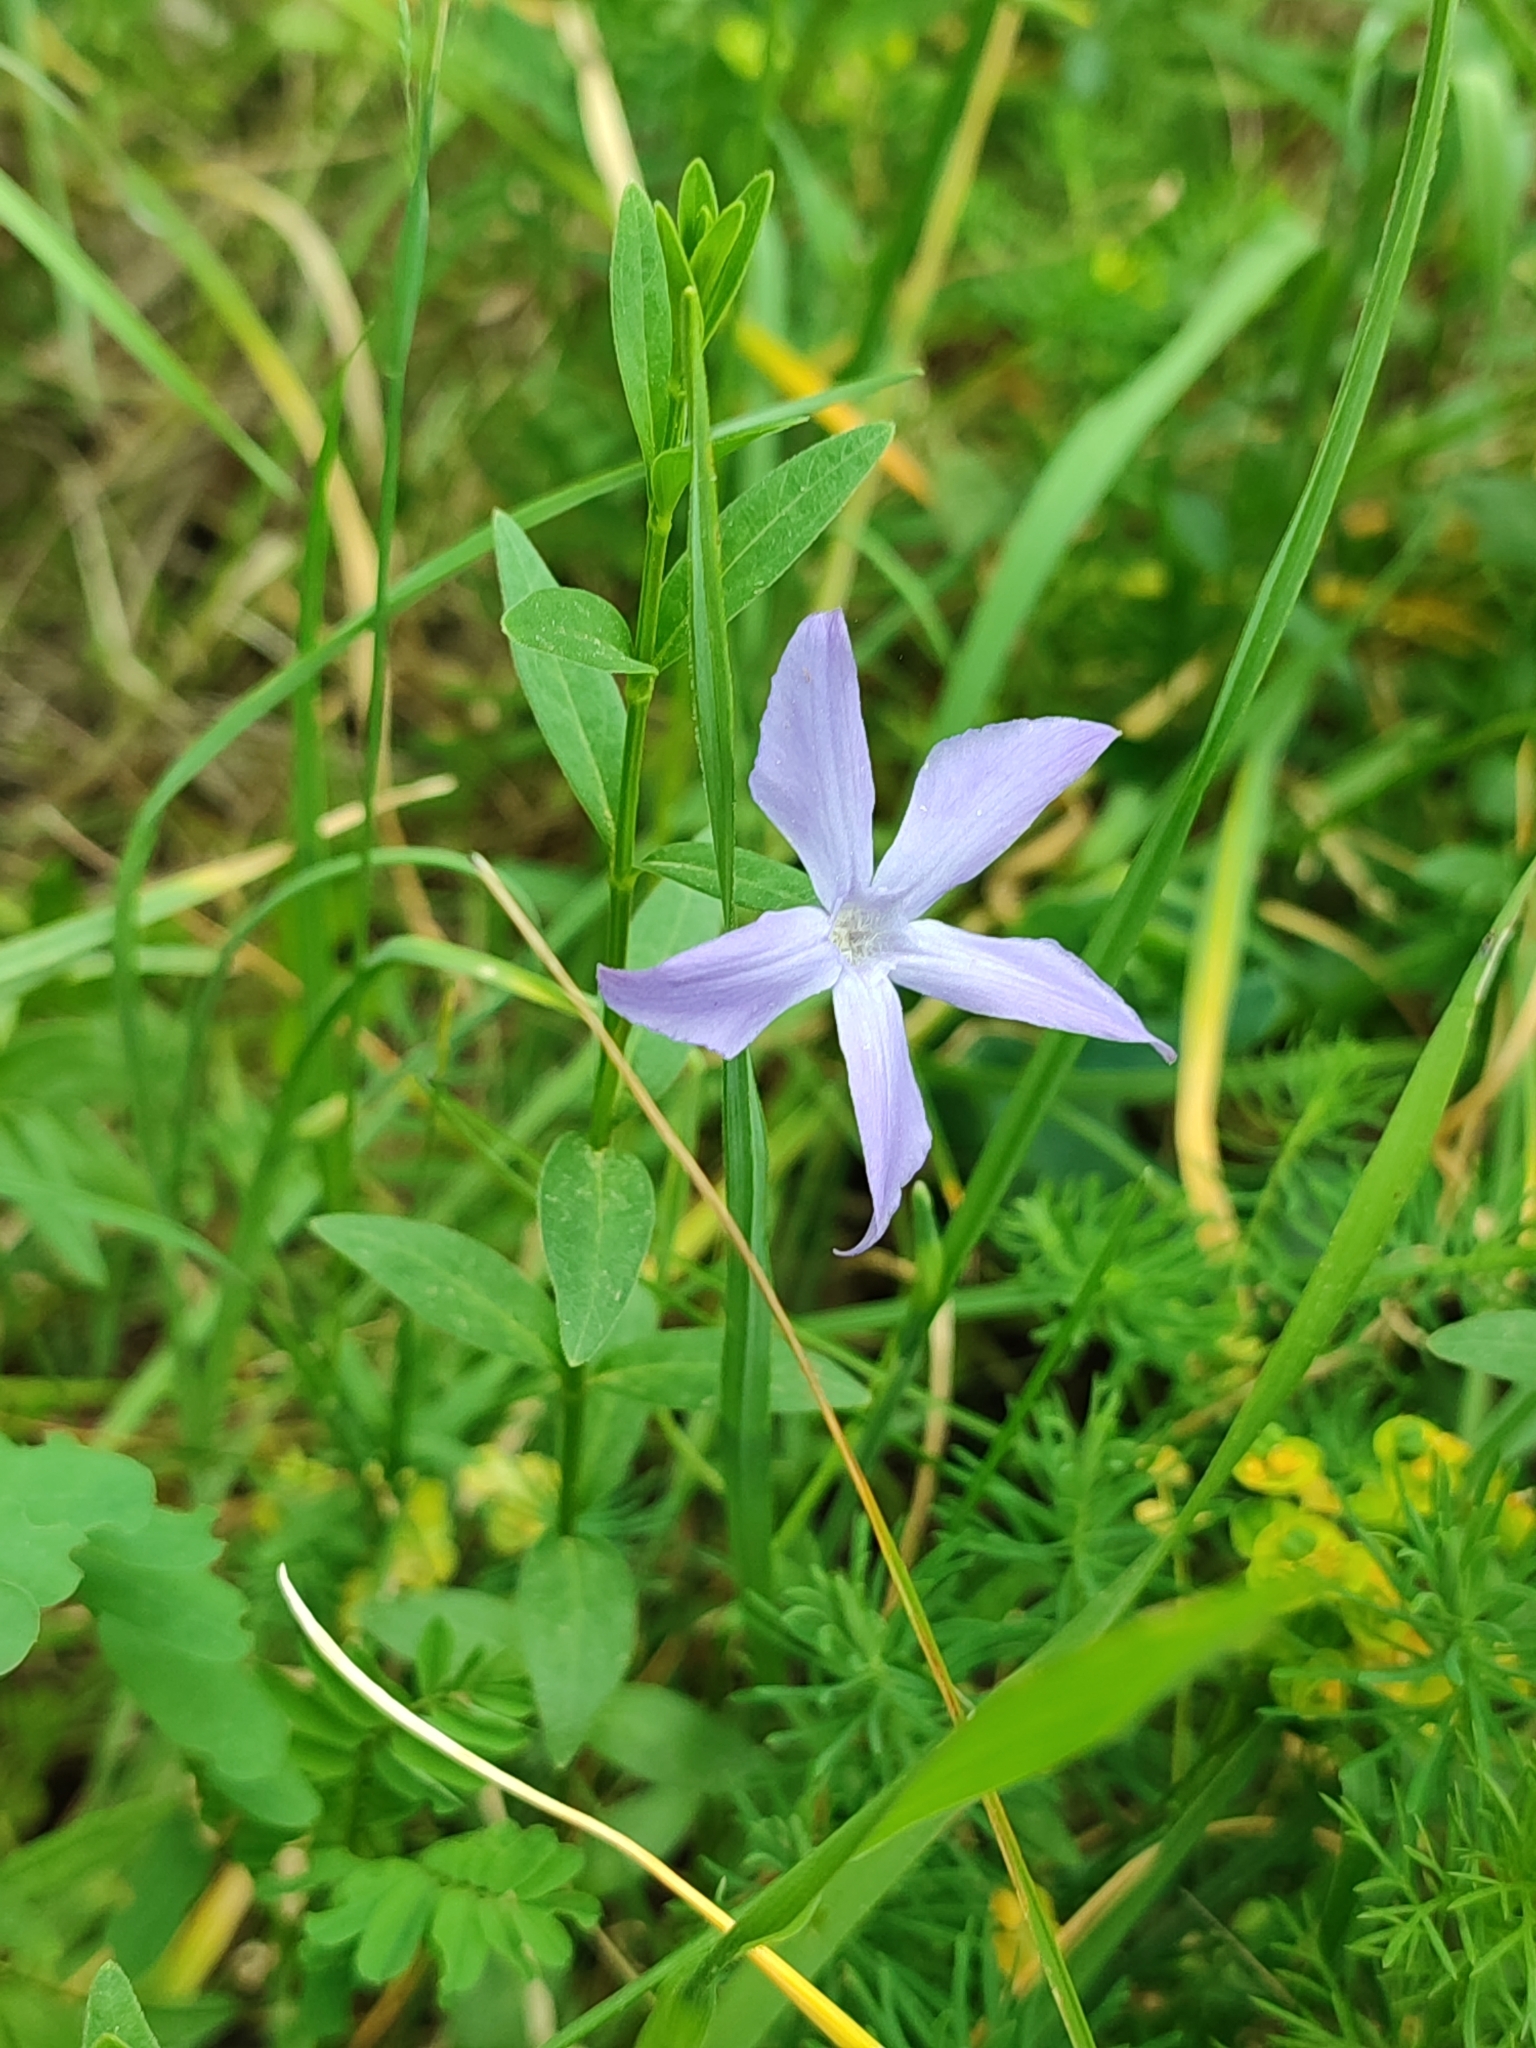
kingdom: Plantae
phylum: Tracheophyta
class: Magnoliopsida
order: Gentianales
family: Apocynaceae
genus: Vinca
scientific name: Vinca herbacea
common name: Herbaceous periwinkle
